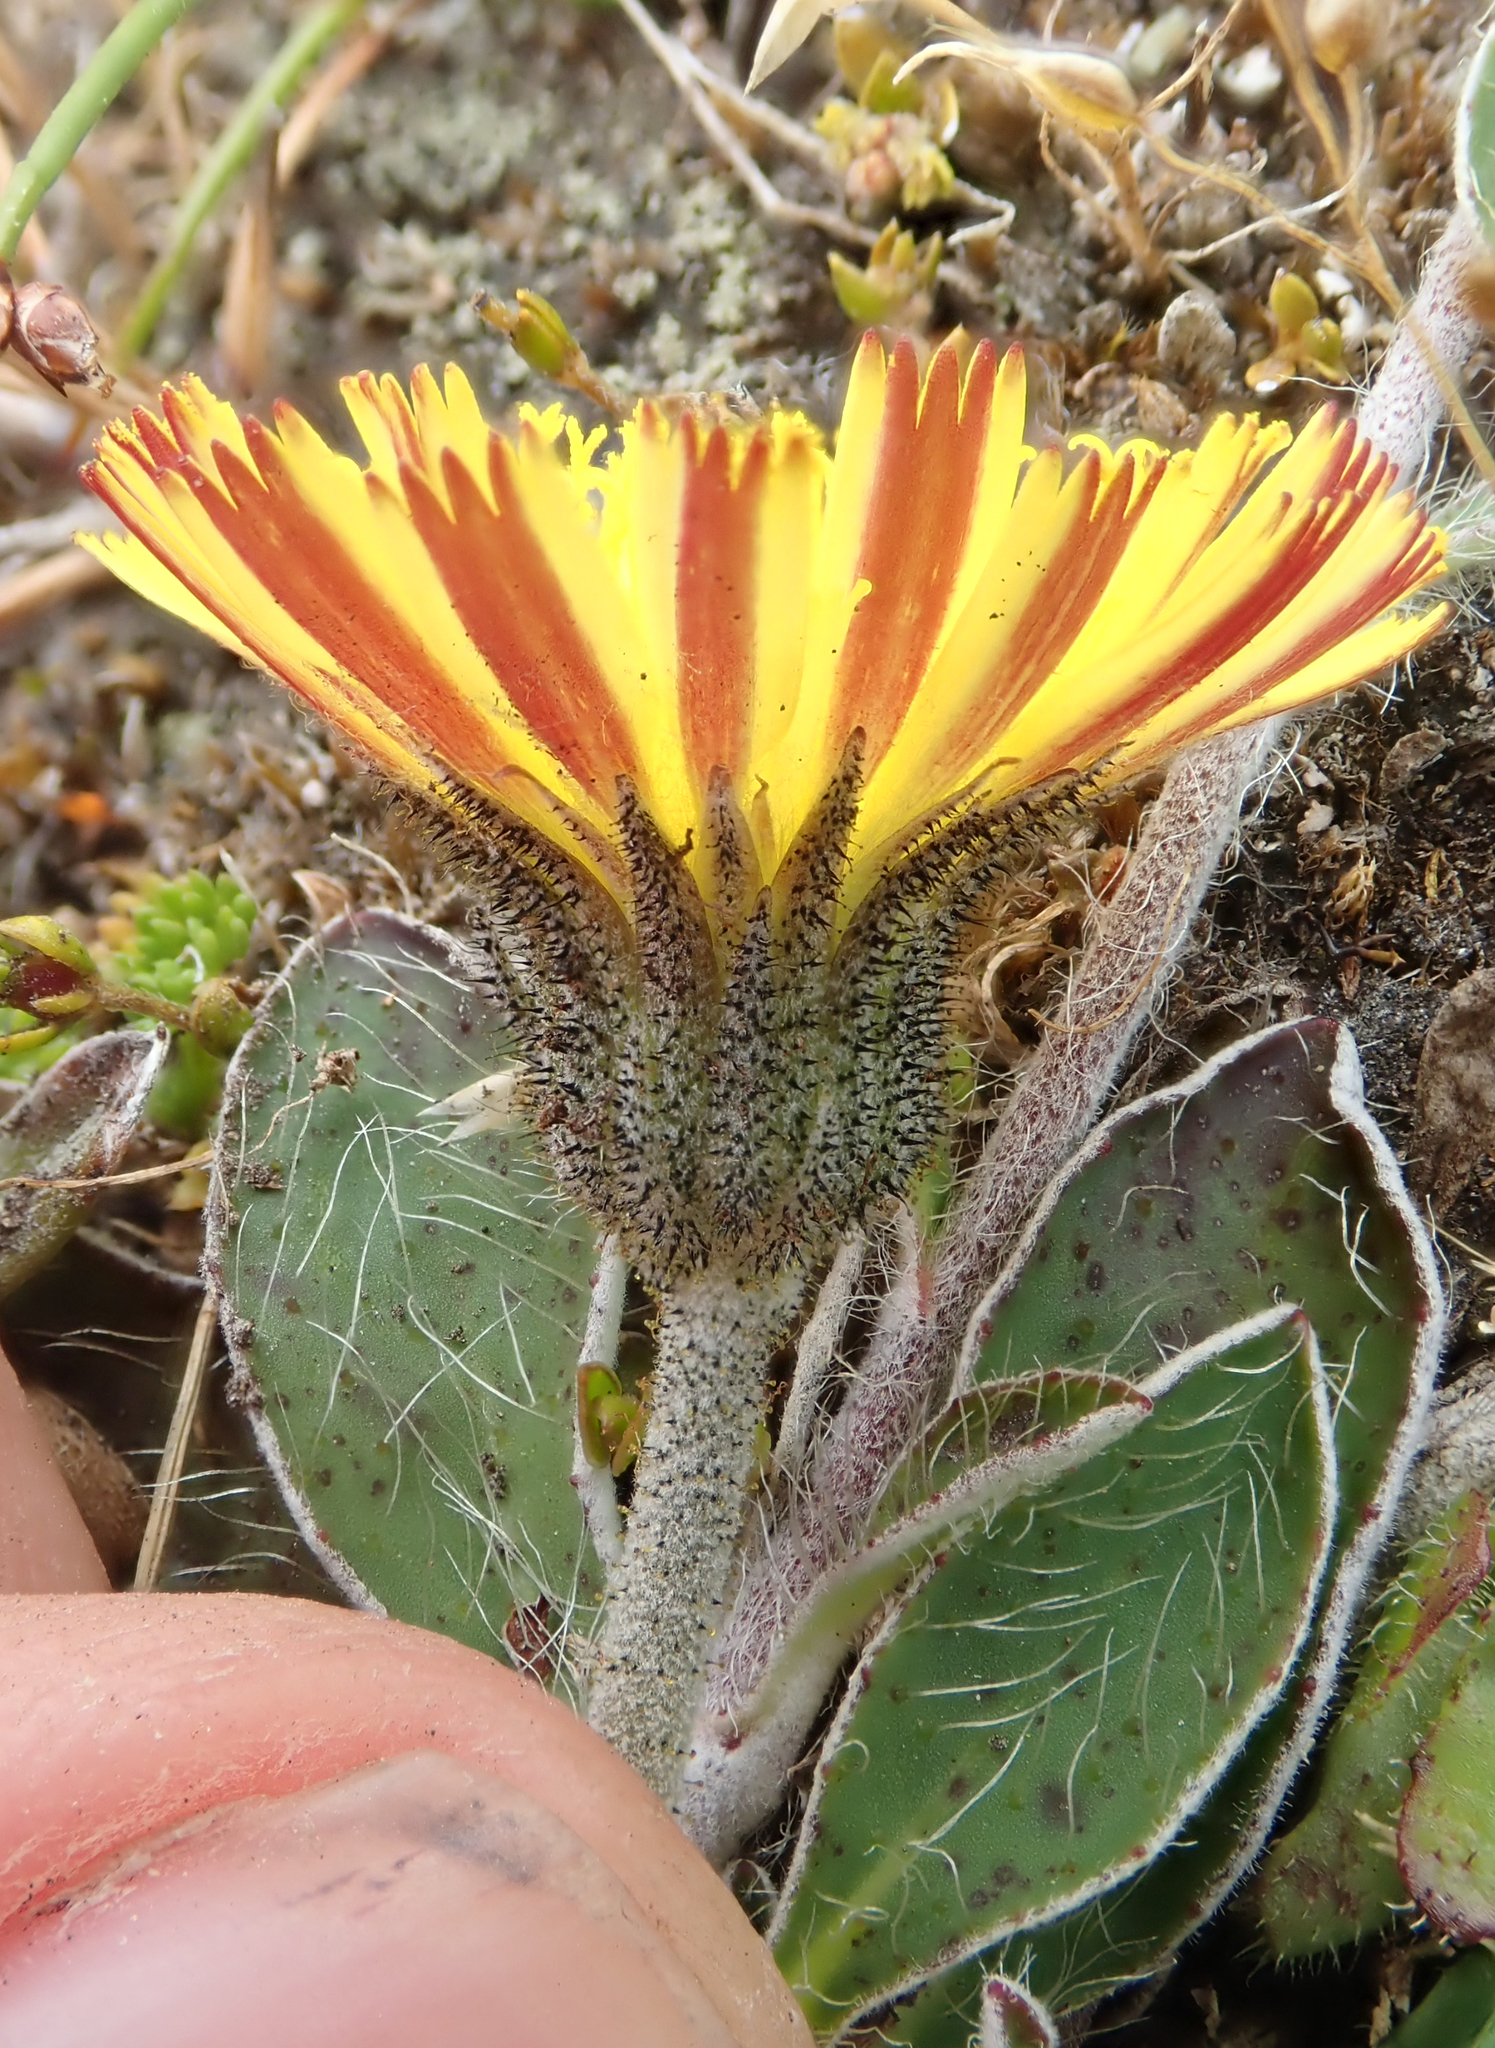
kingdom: Plantae
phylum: Tracheophyta
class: Magnoliopsida
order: Asterales
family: Asteraceae
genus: Pilosella
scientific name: Pilosella officinarum
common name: Mouse-ear hawkweed
